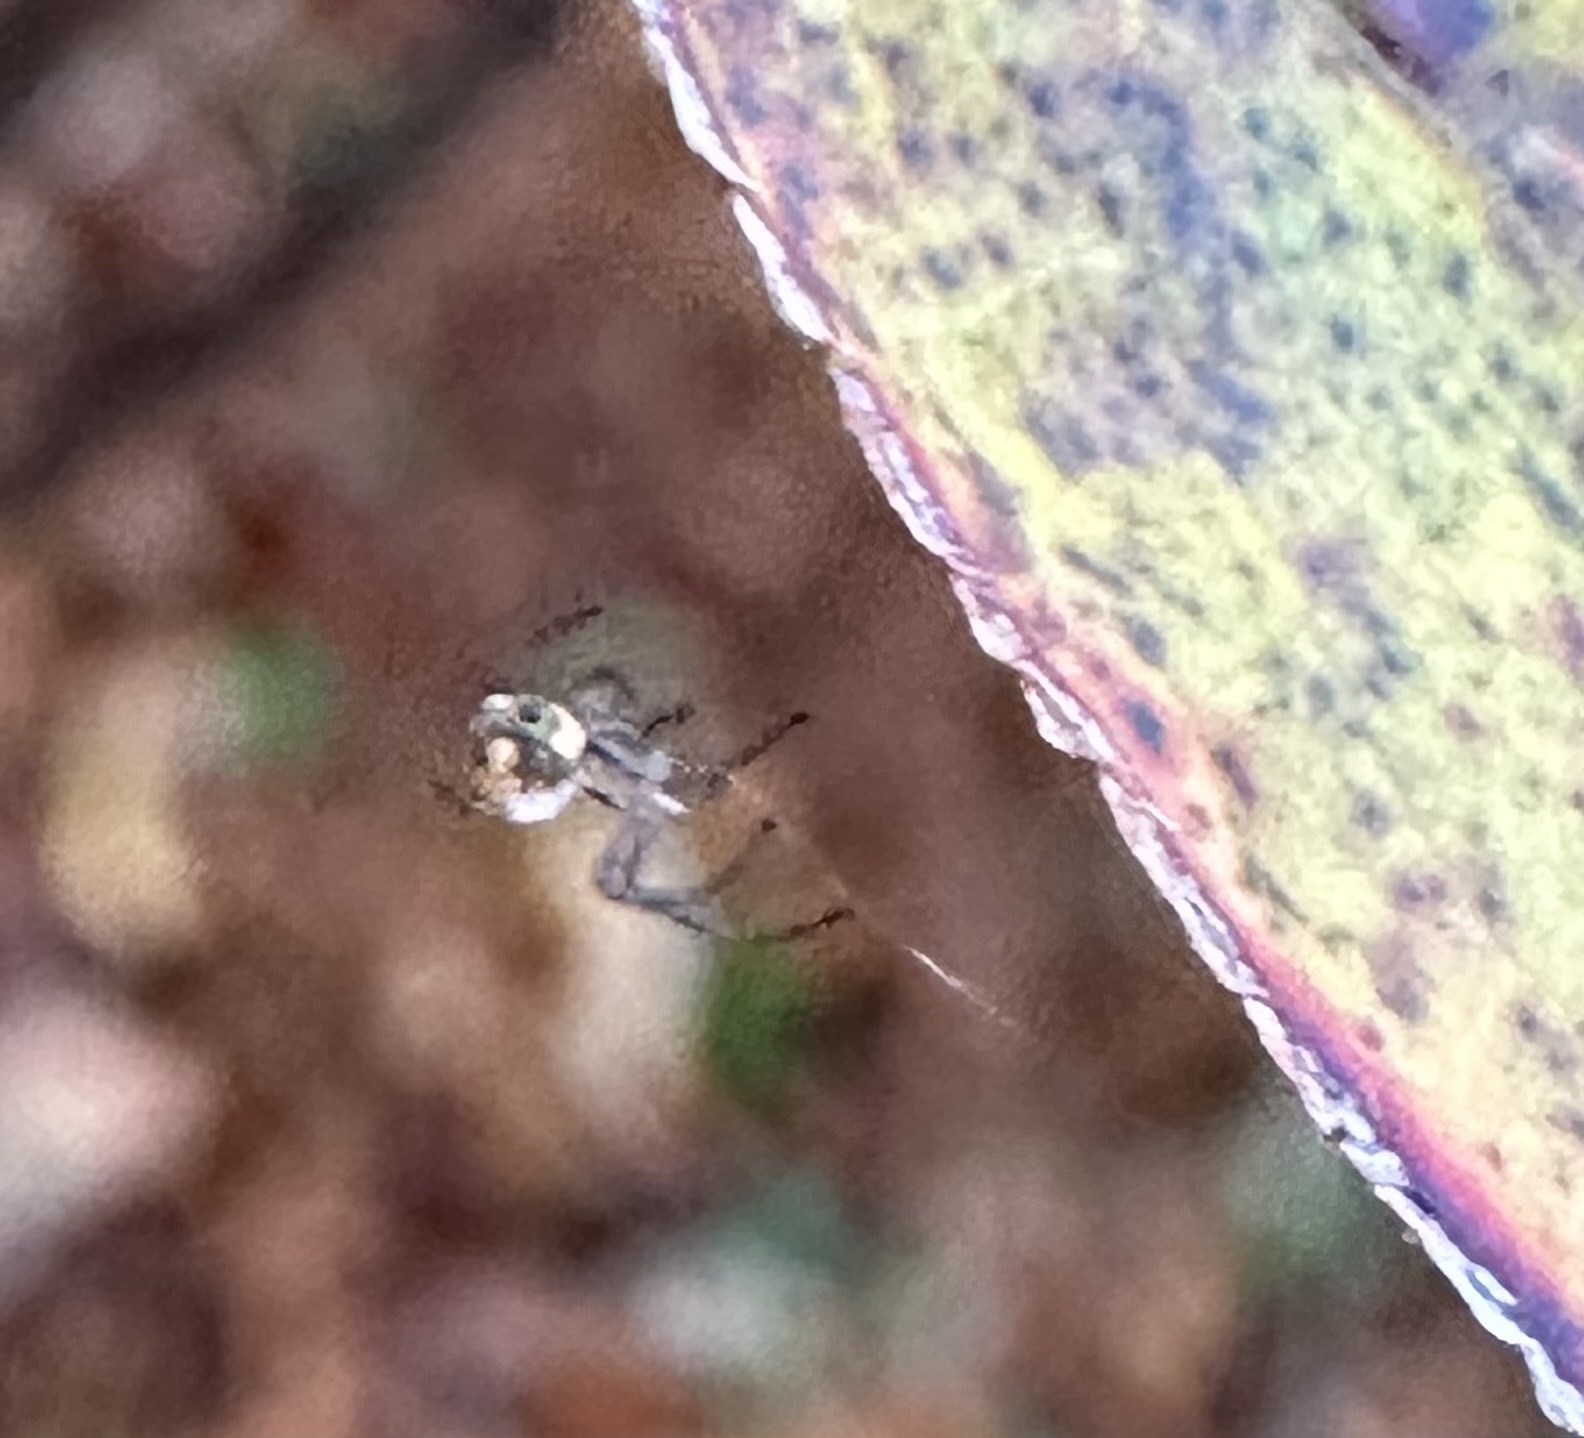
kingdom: Animalia
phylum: Arthropoda
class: Arachnida
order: Araneae
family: Tetragnathidae
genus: Leucauge
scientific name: Leucauge venusta
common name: Longjawed orb weavers
